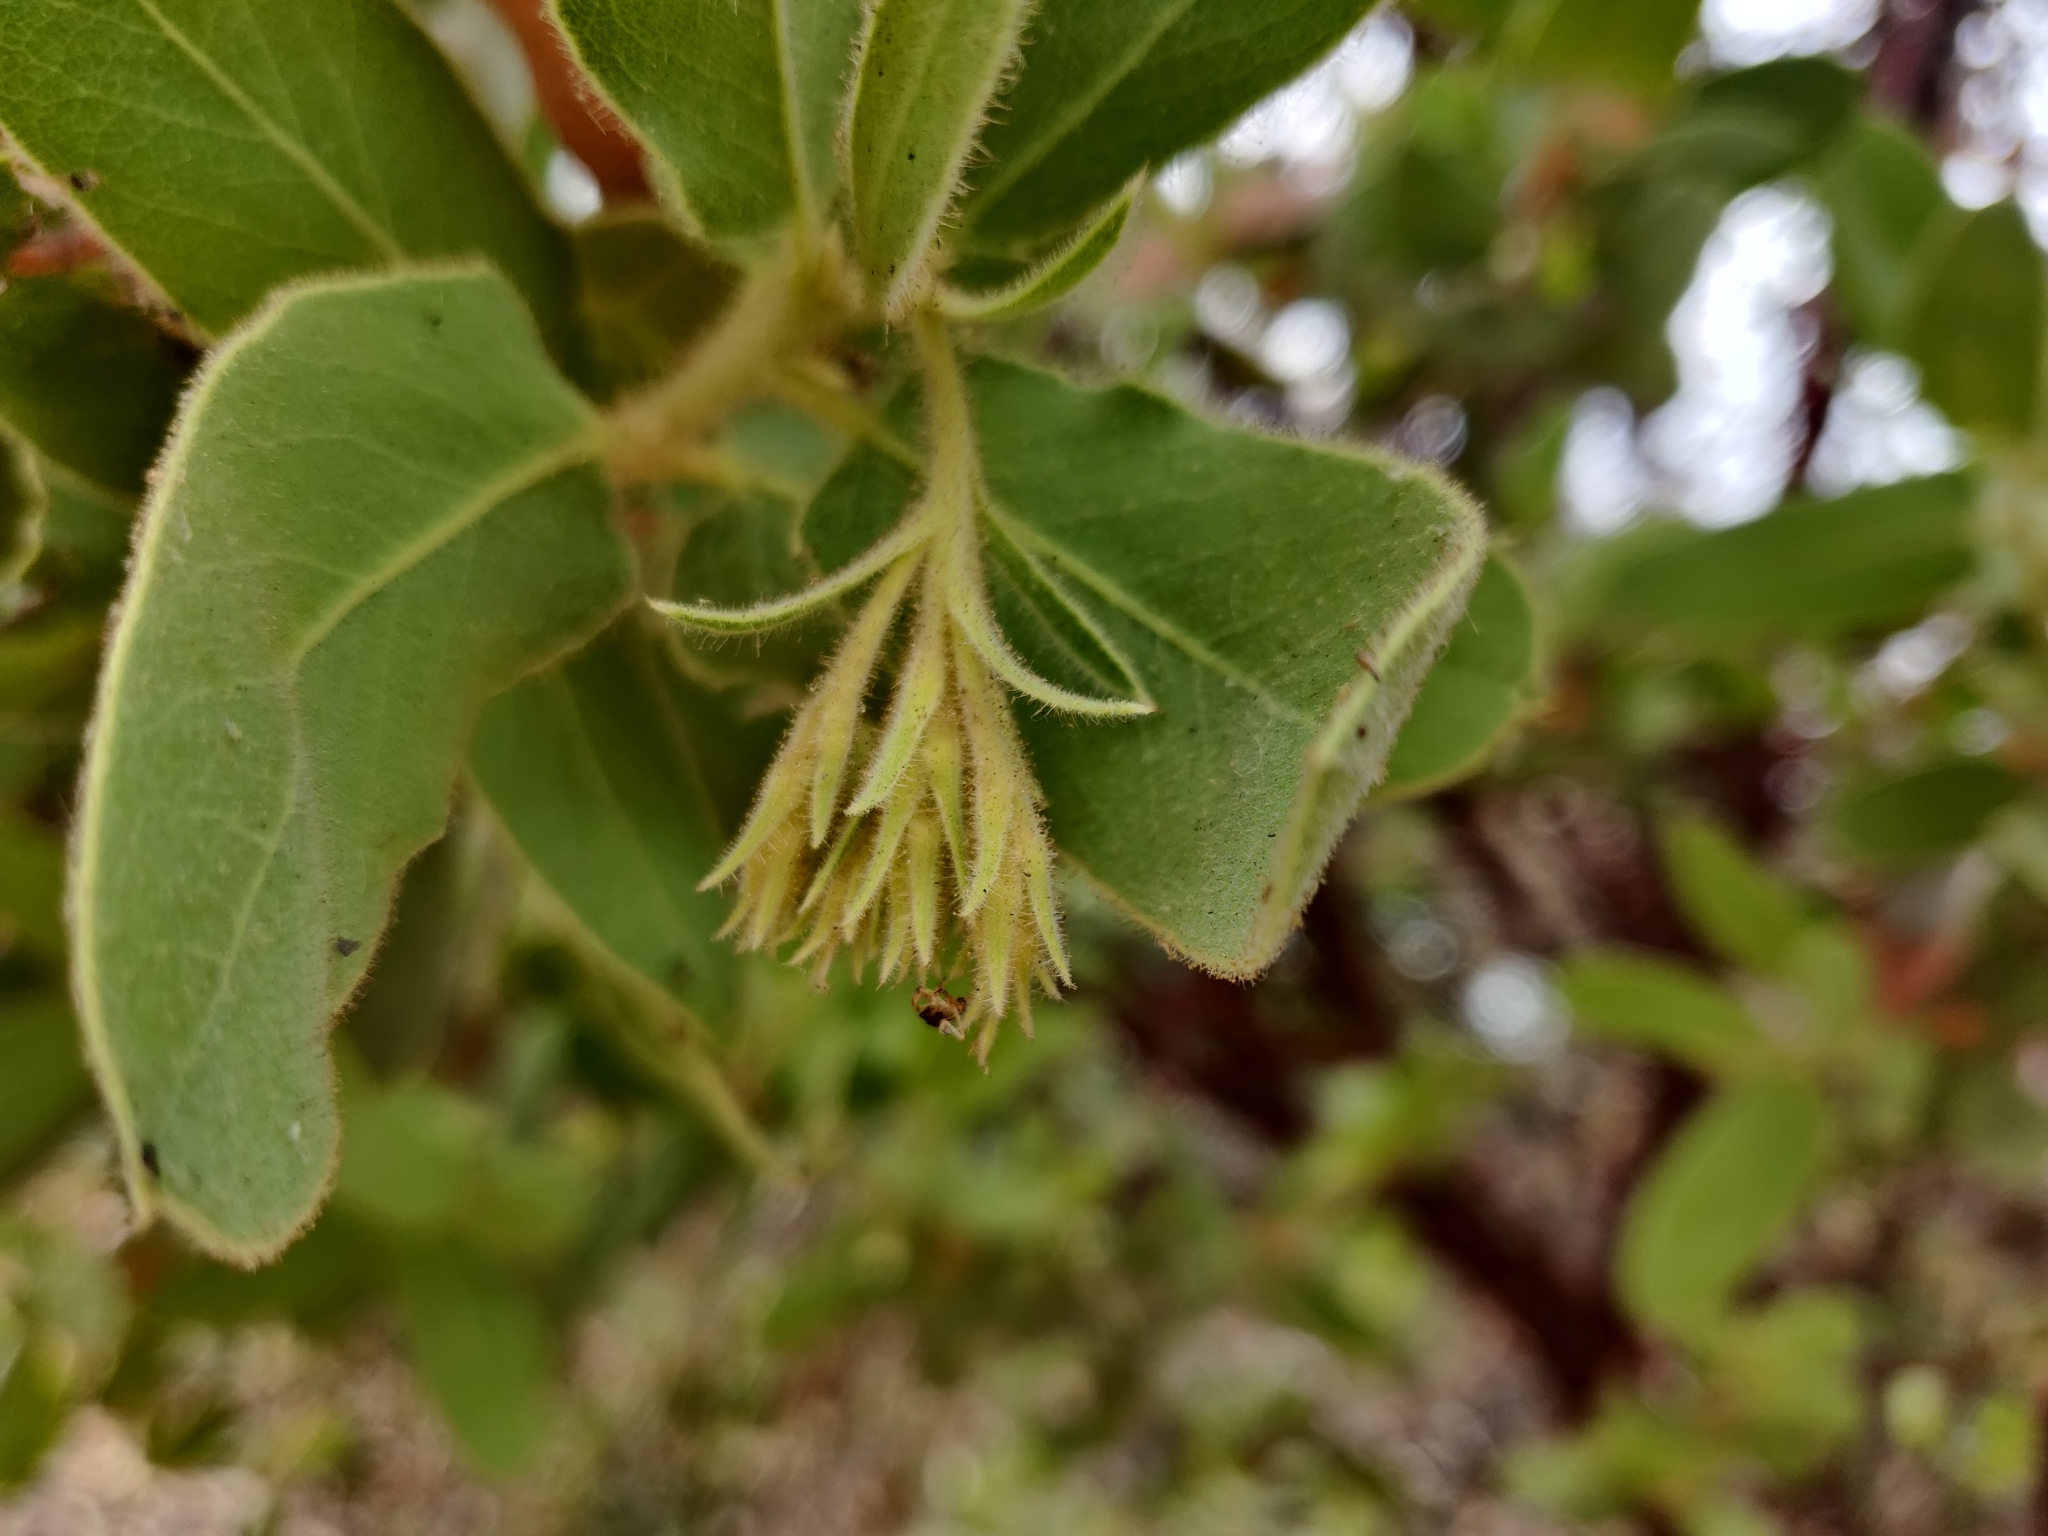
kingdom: Plantae
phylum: Tracheophyta
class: Magnoliopsida
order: Ericales
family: Ericaceae
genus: Arctostaphylos
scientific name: Arctostaphylos hooveri
